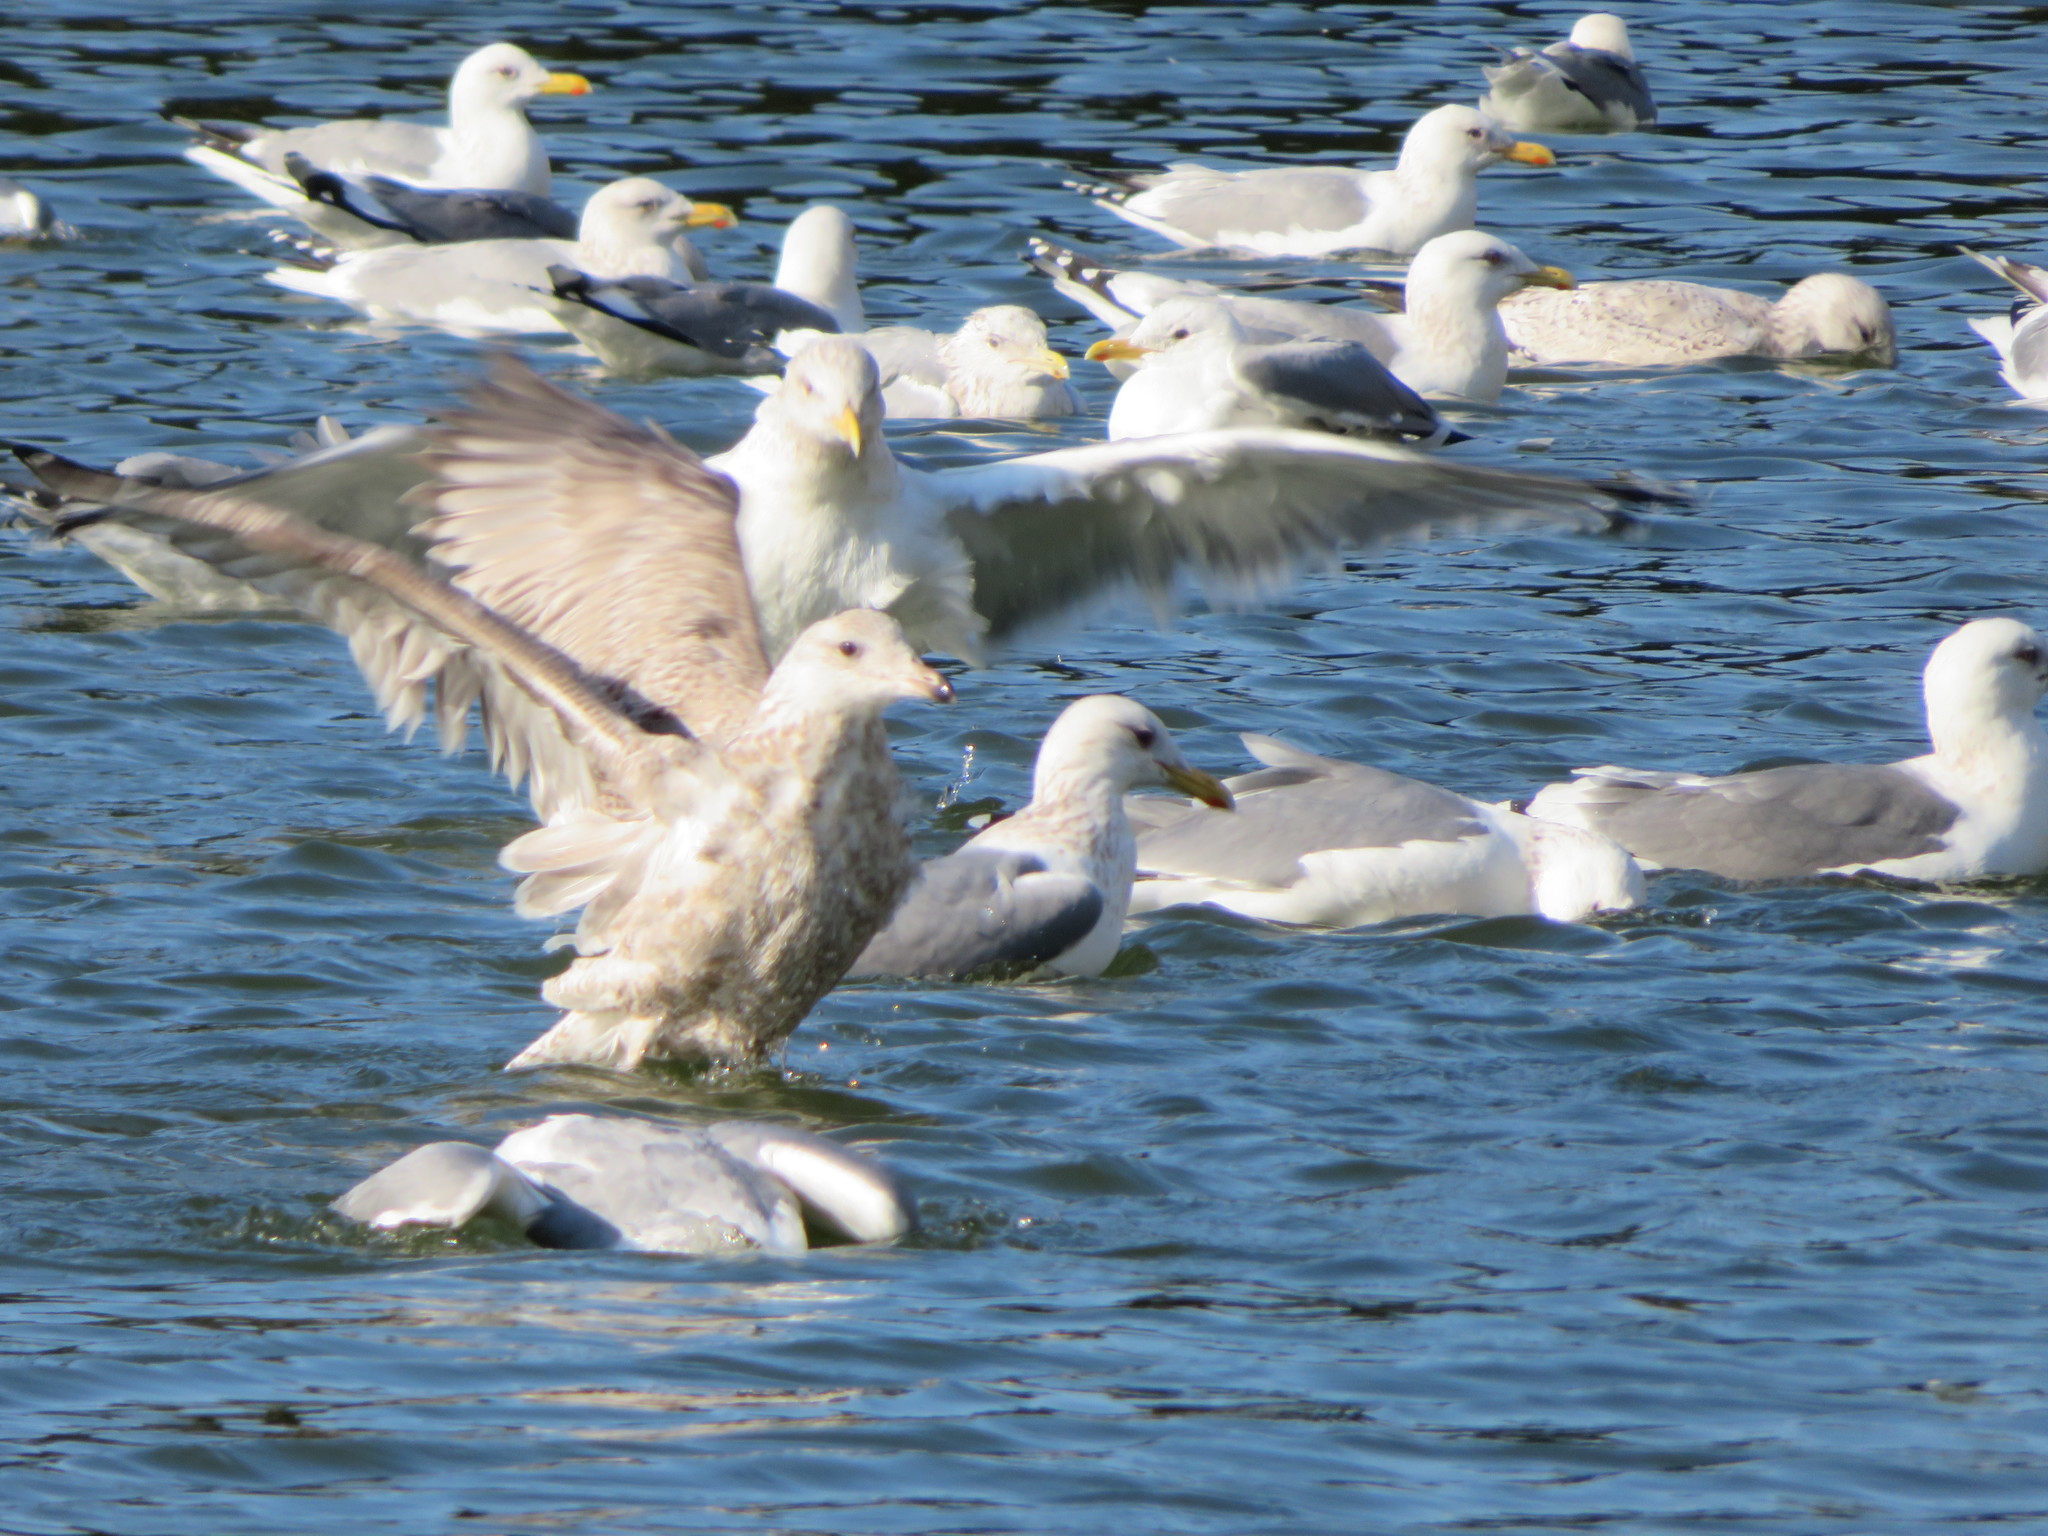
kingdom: Animalia
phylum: Chordata
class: Aves
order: Charadriiformes
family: Laridae
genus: Larus
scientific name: Larus argentatus
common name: Herring gull
